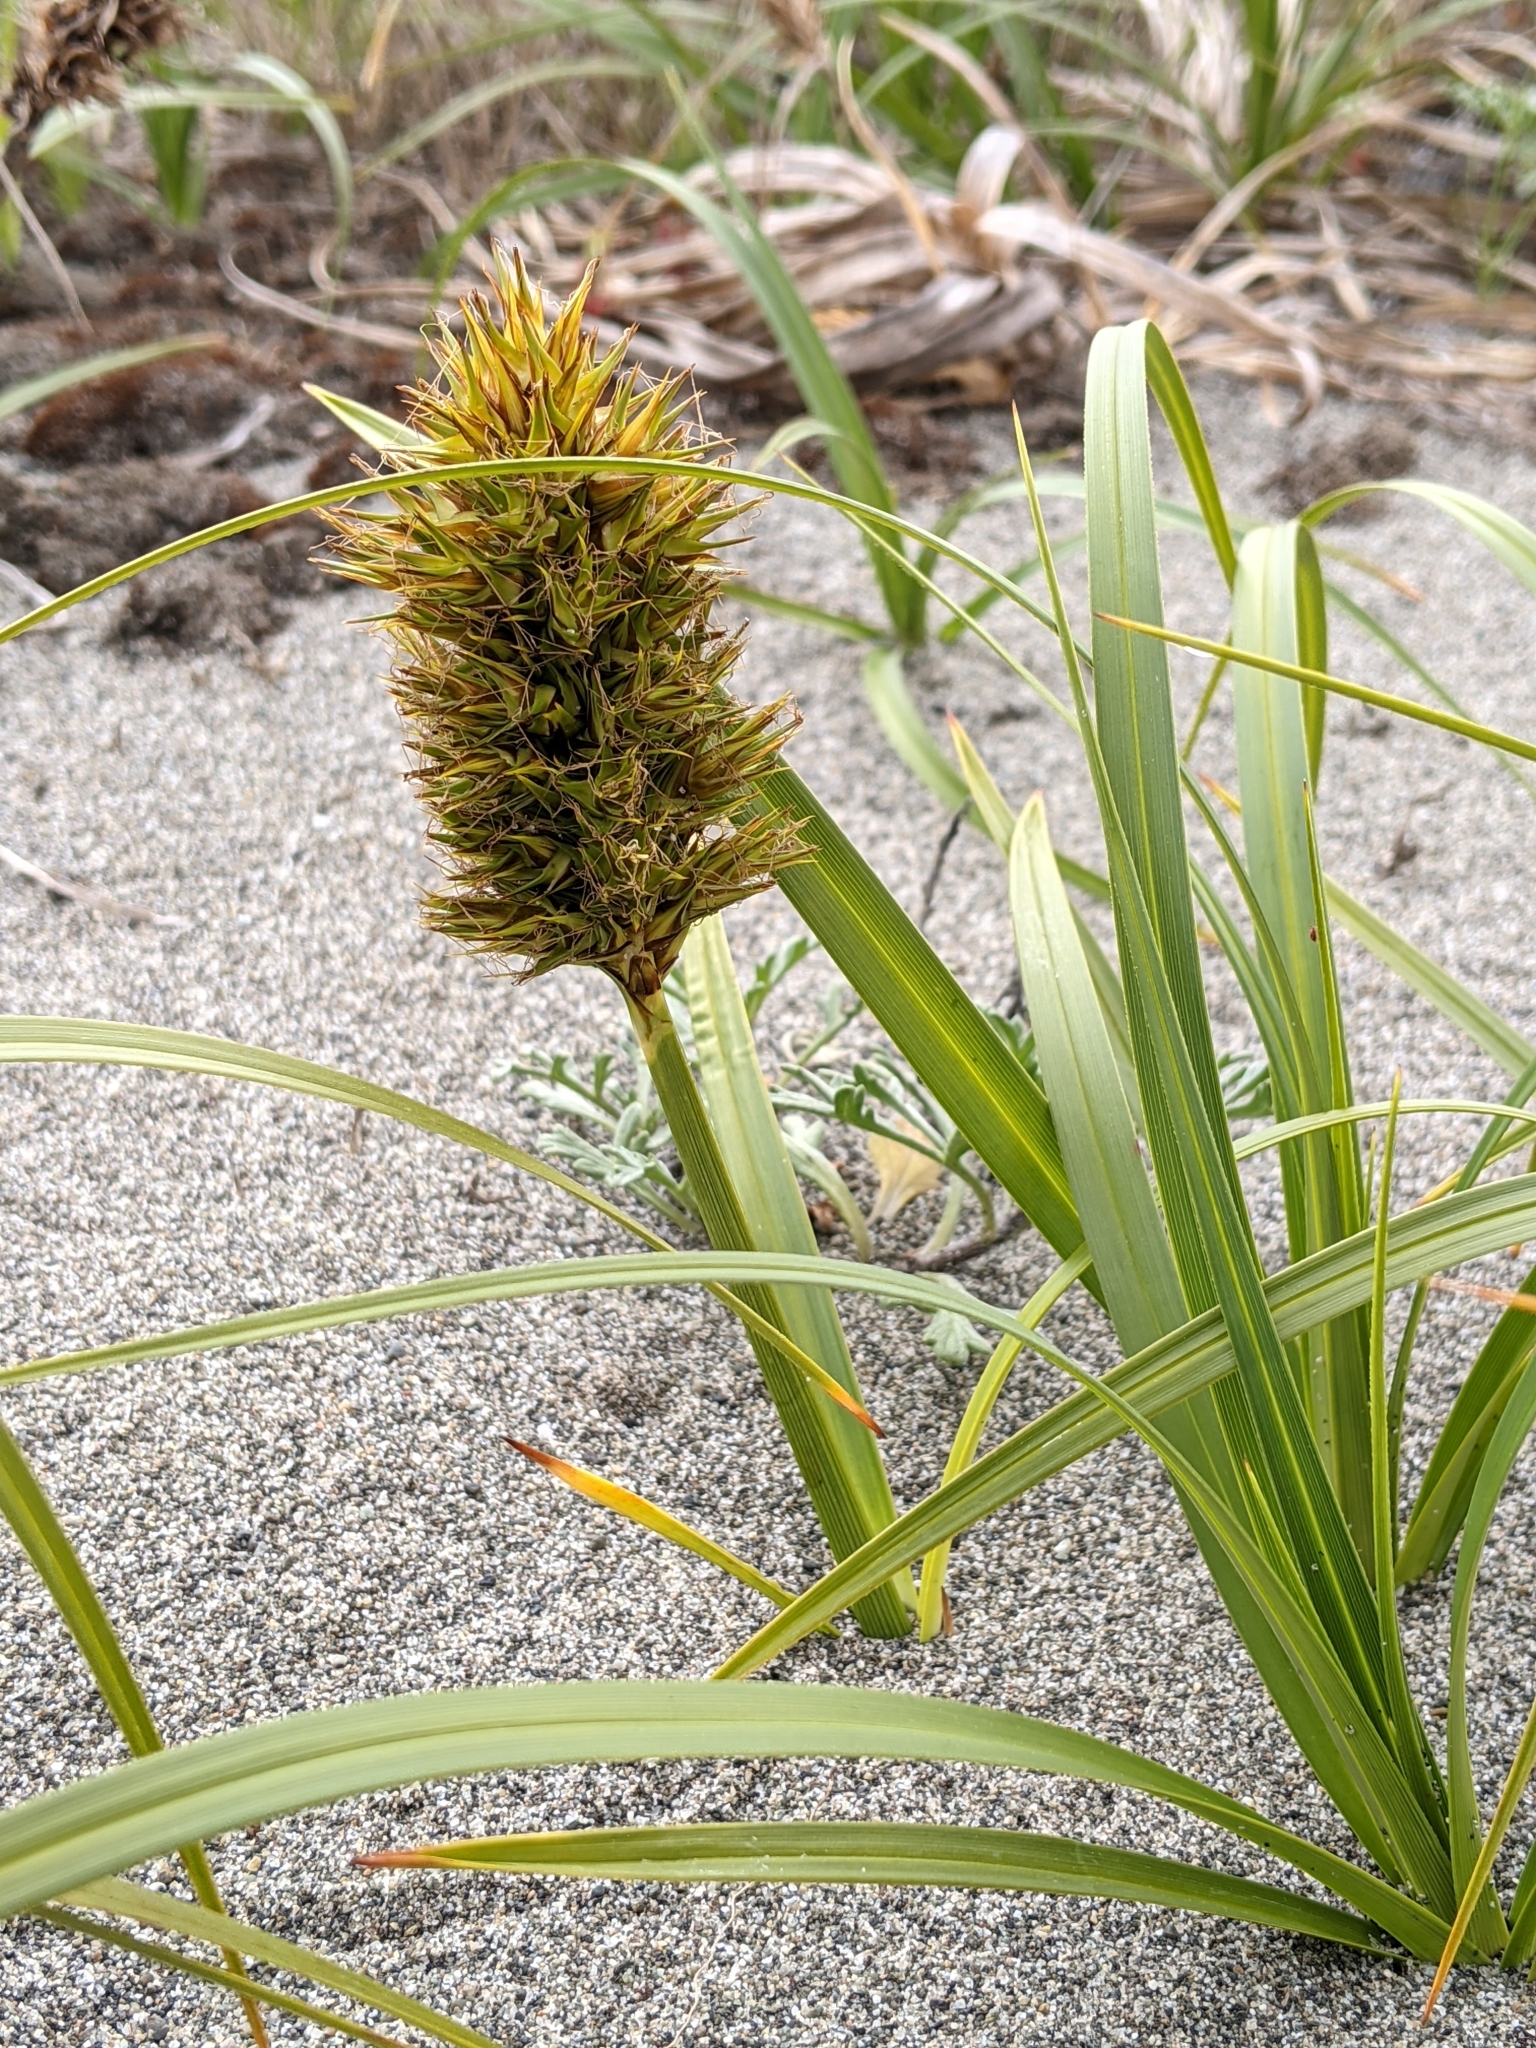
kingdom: Plantae
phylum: Tracheophyta
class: Liliopsida
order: Poales
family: Cyperaceae
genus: Carex
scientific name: Carex macrocephala
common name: Large-head sedge
